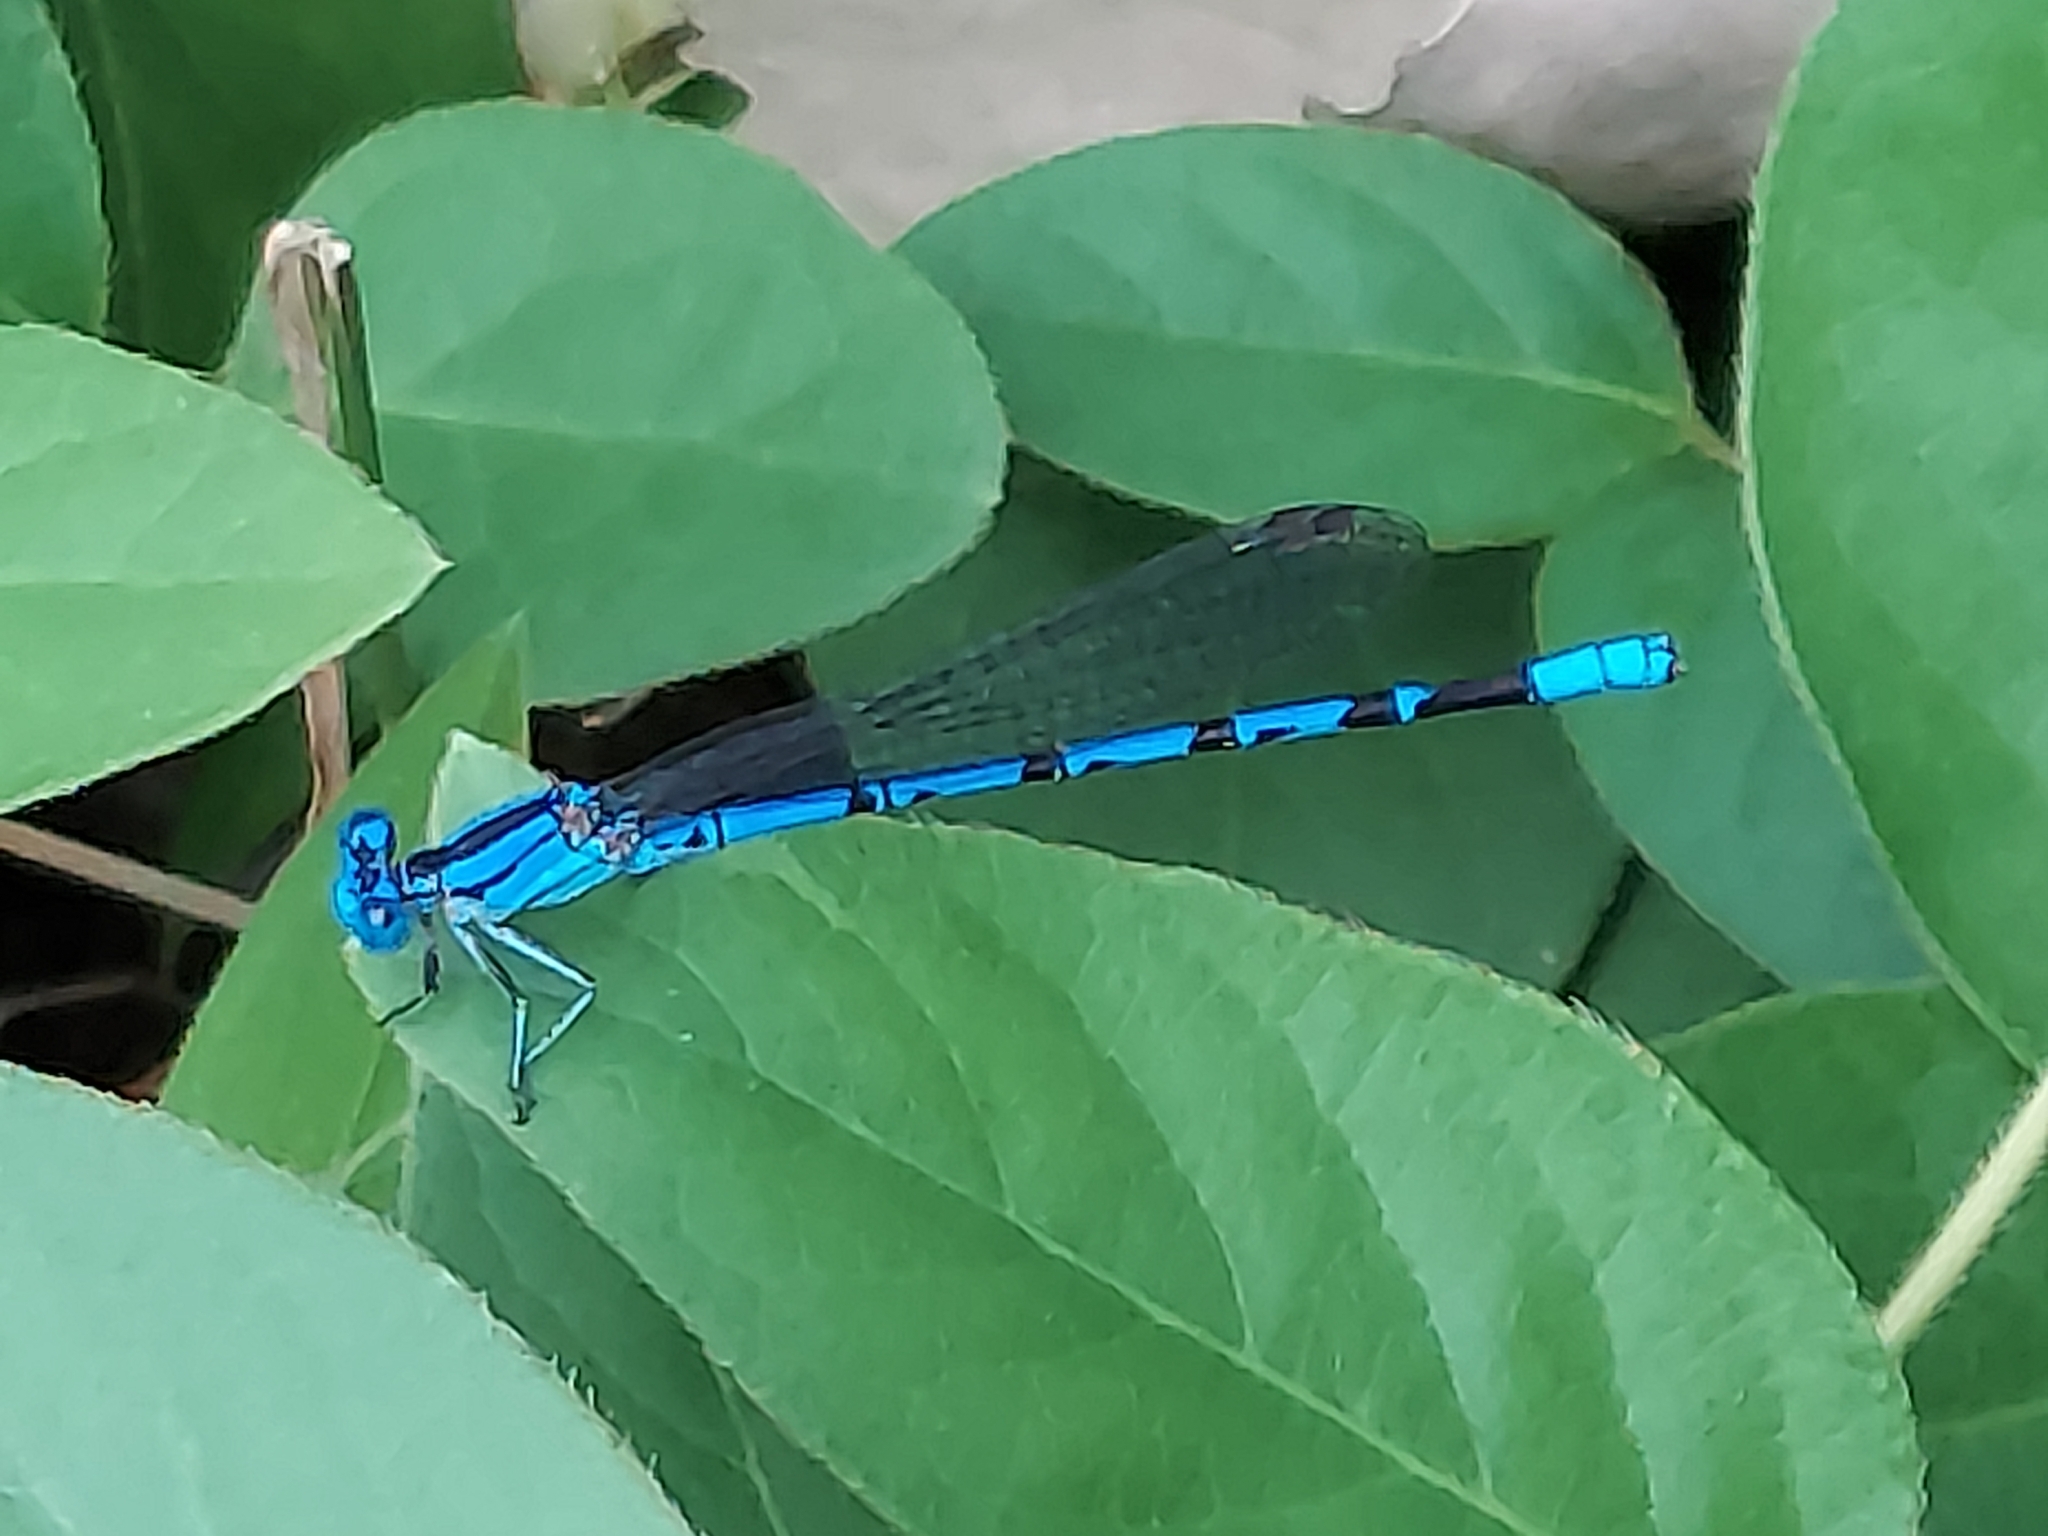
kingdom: Animalia
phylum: Arthropoda
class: Insecta
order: Odonata
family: Coenagrionidae
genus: Argia
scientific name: Argia funebris
